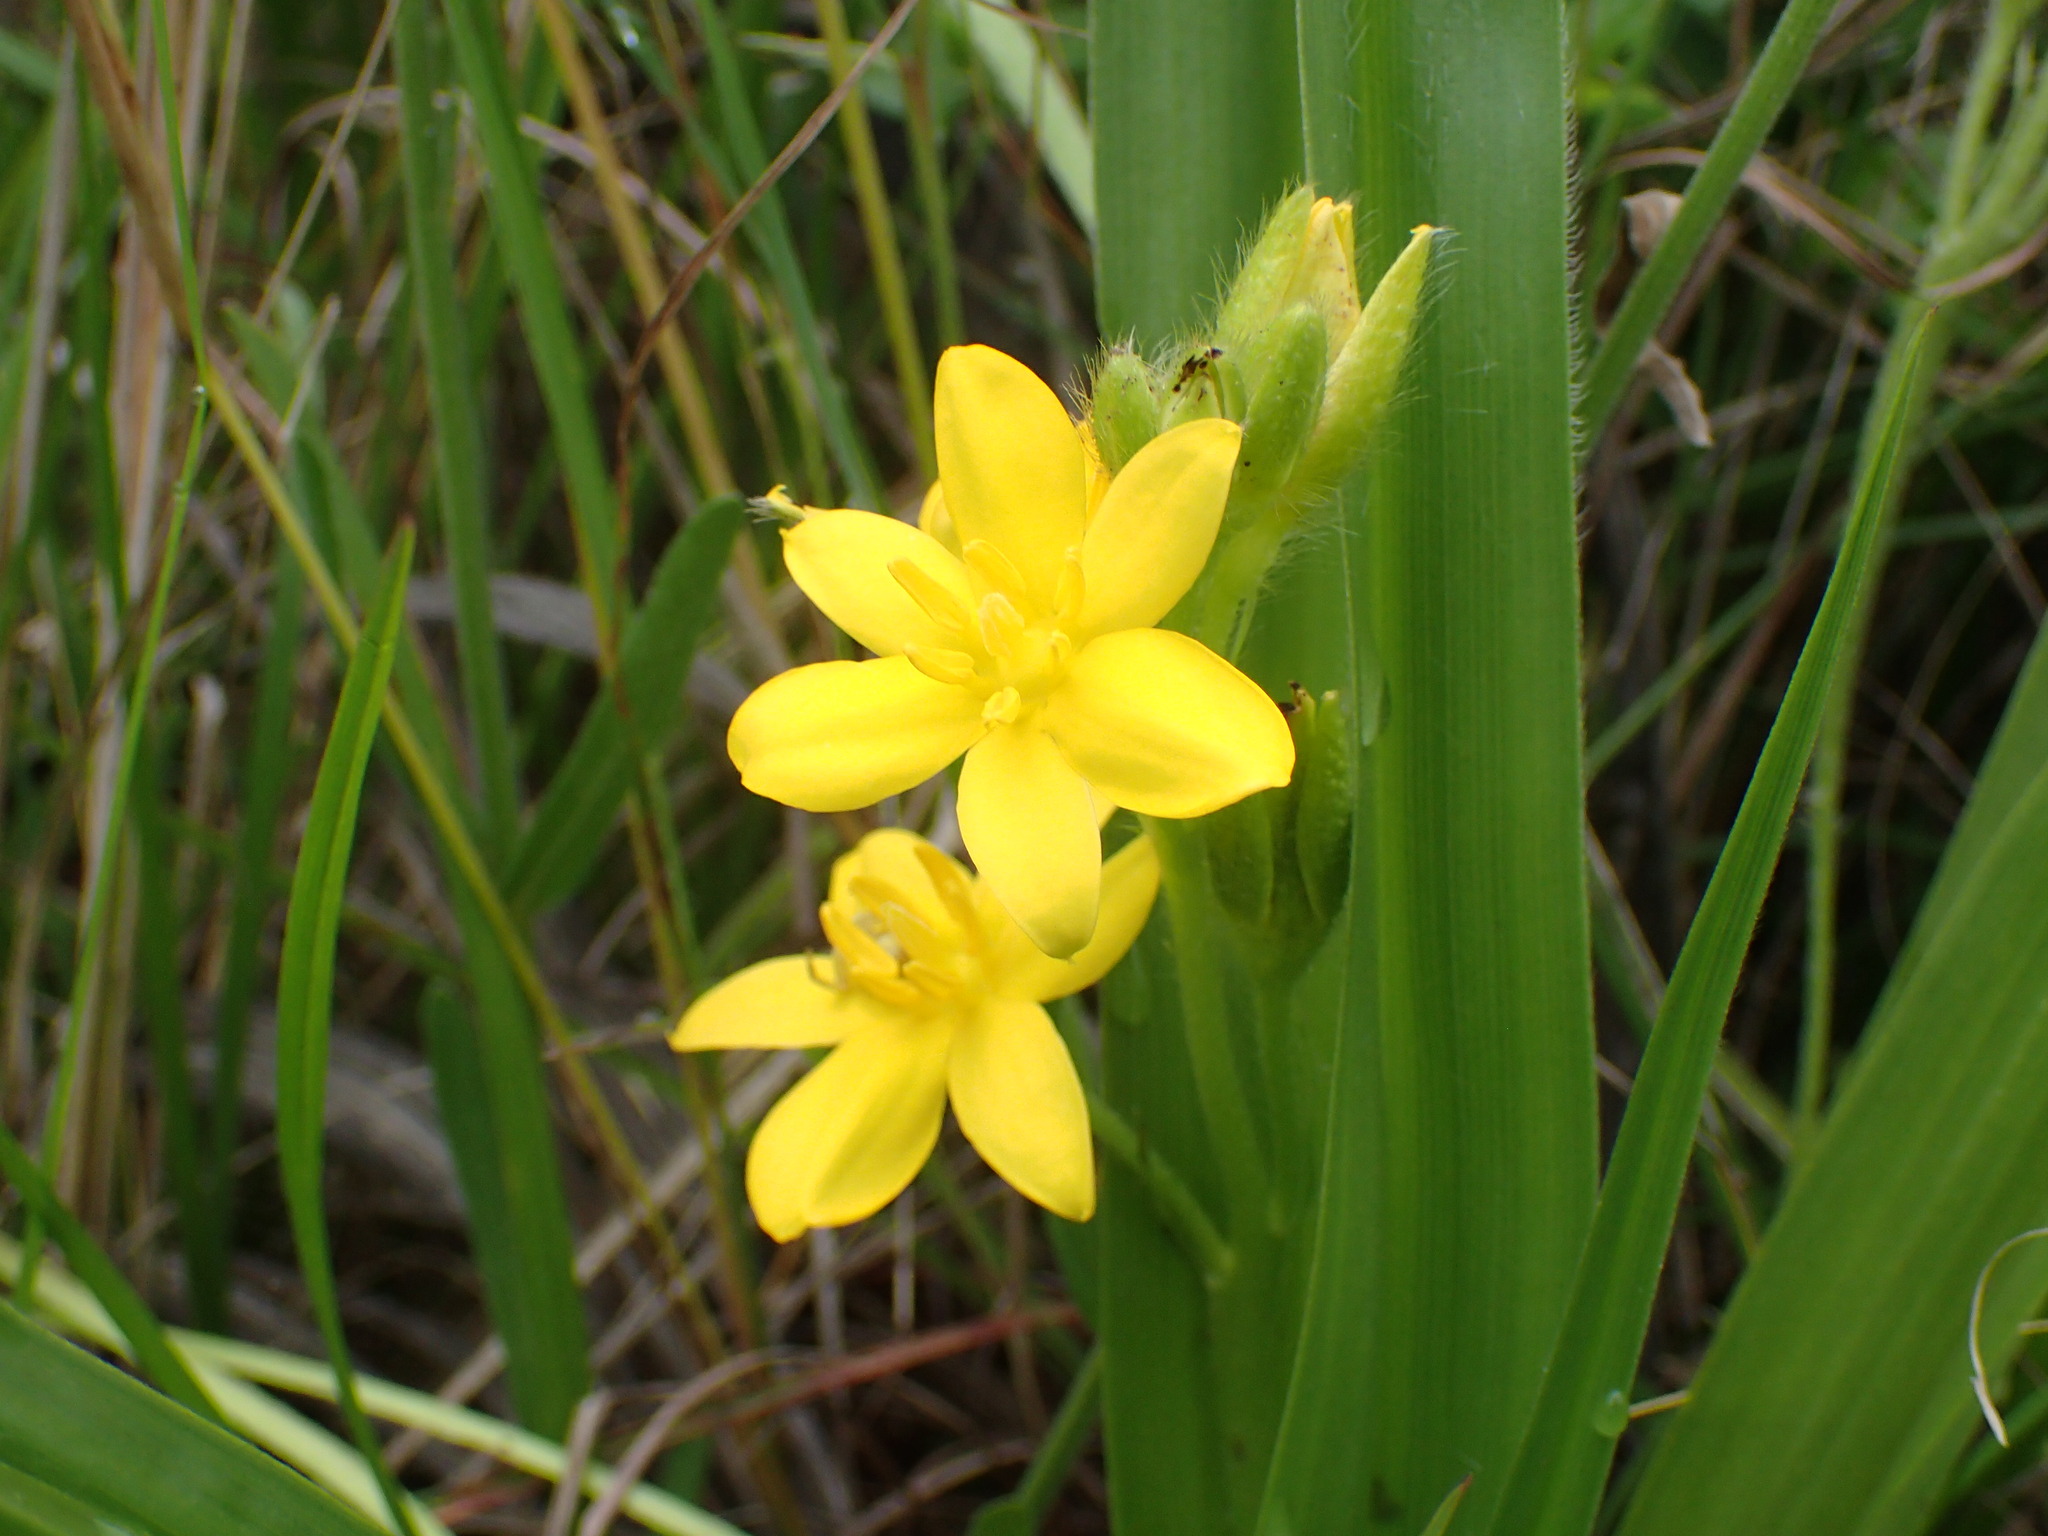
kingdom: Plantae
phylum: Tracheophyta
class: Liliopsida
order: Asparagales
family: Hypoxidaceae
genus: Hypoxis
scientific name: Hypoxis hemerocallidea
